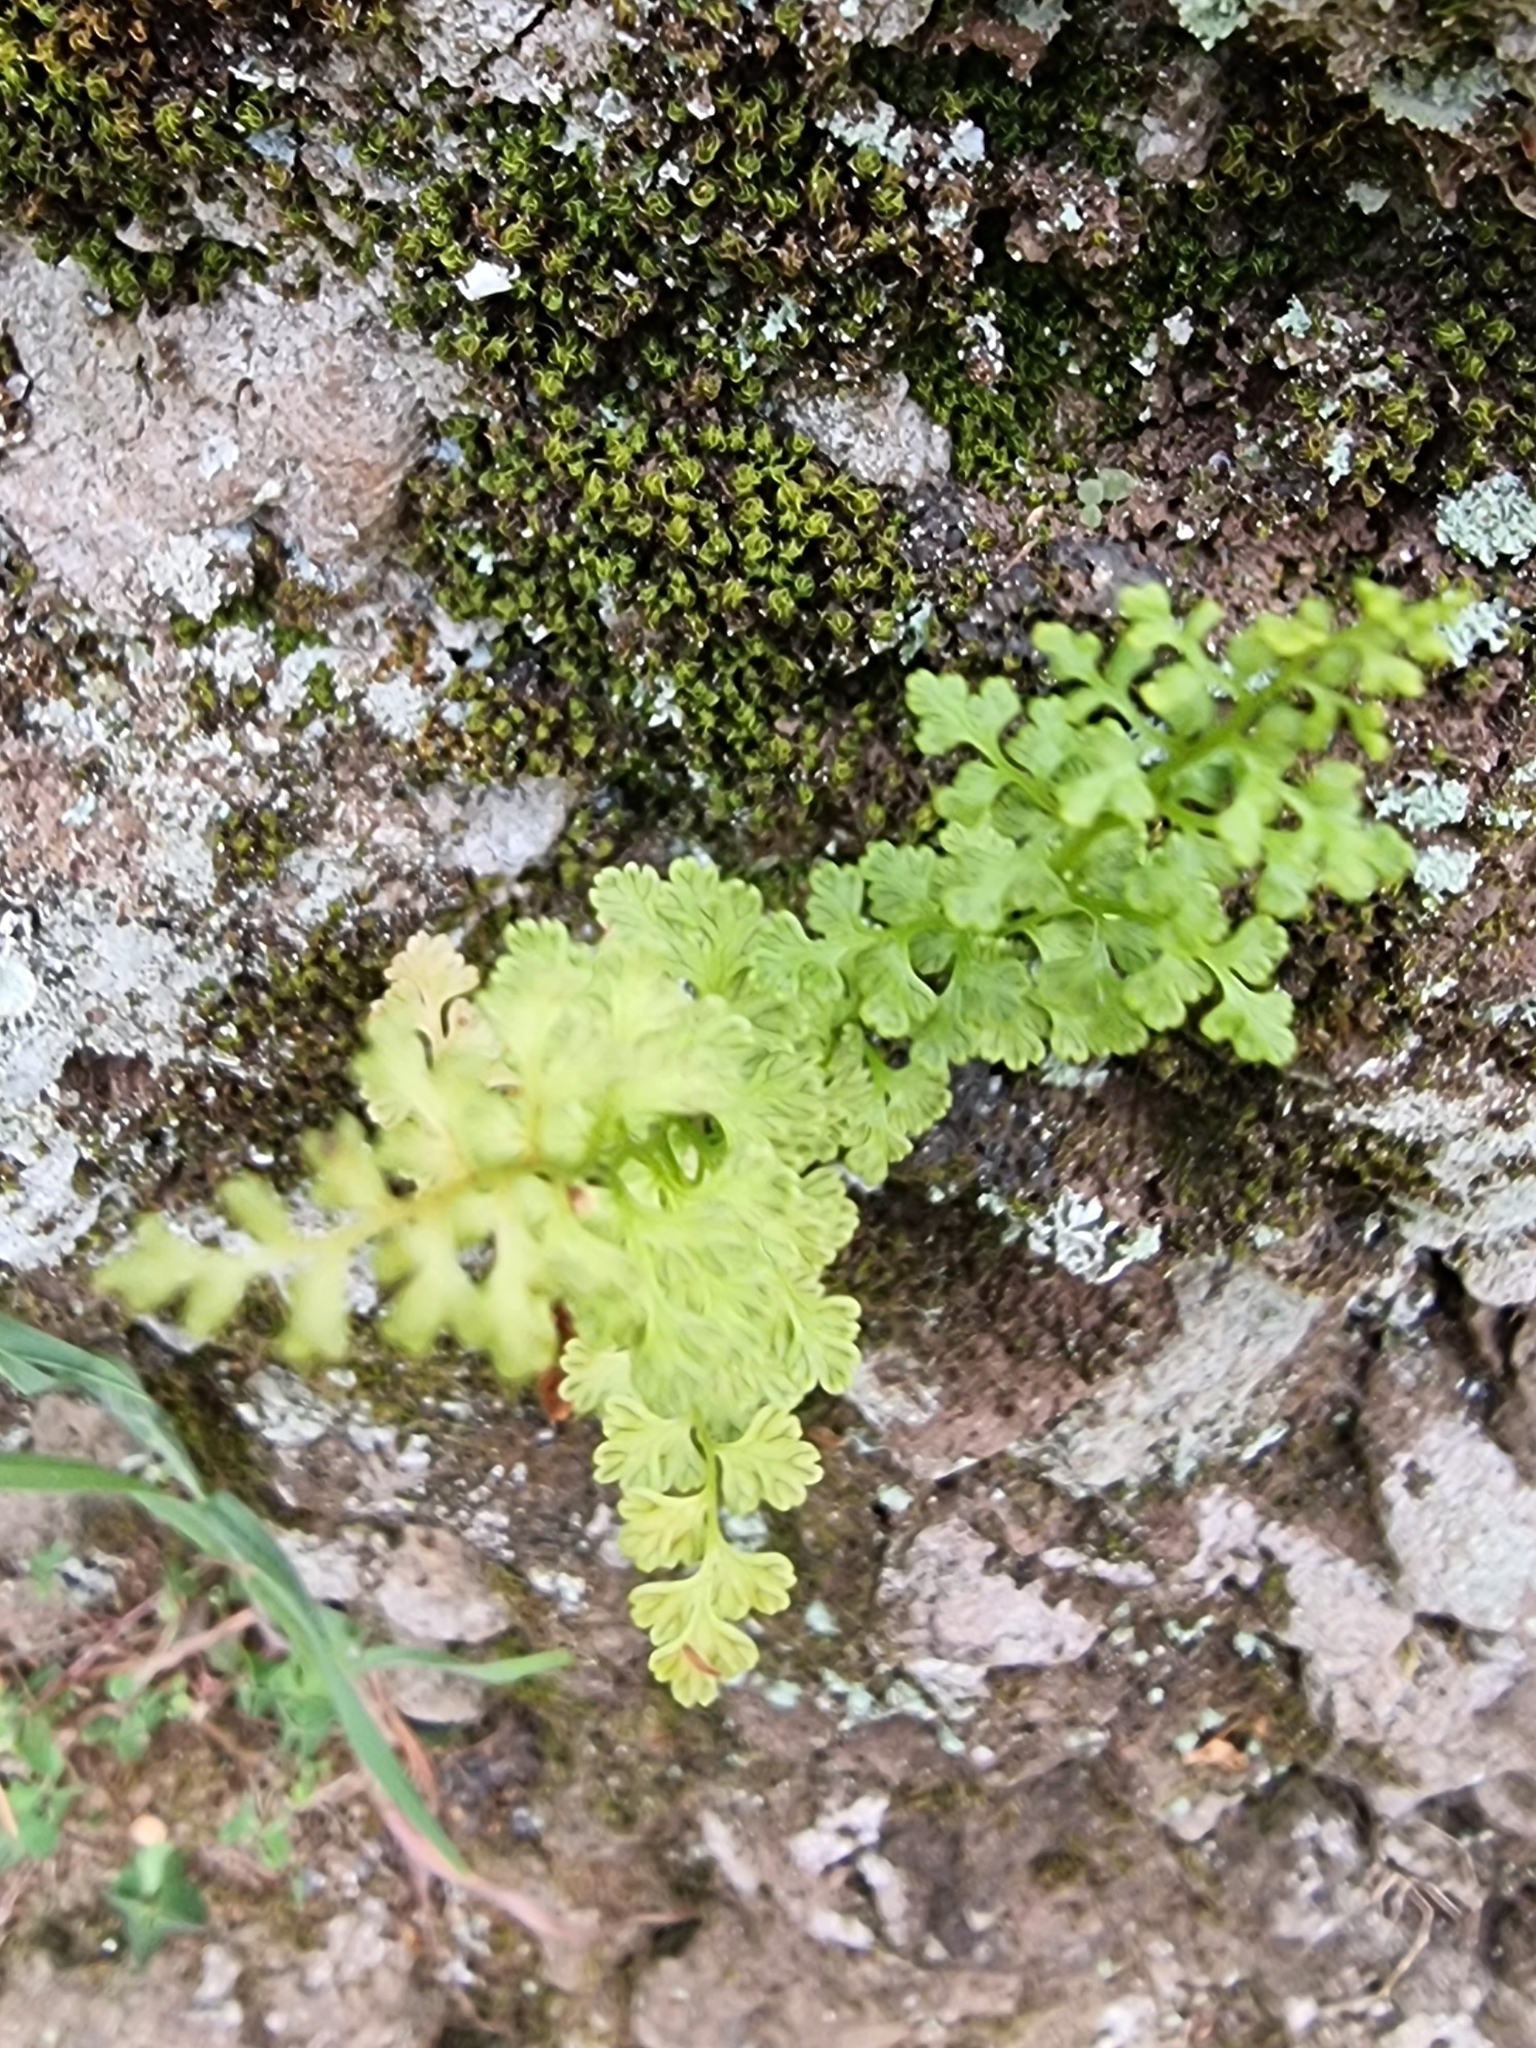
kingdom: Plantae
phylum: Tracheophyta
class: Polypodiopsida
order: Polypodiales
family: Pteridaceae
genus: Anogramma
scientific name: Anogramma leptophylla
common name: Jersey fern
